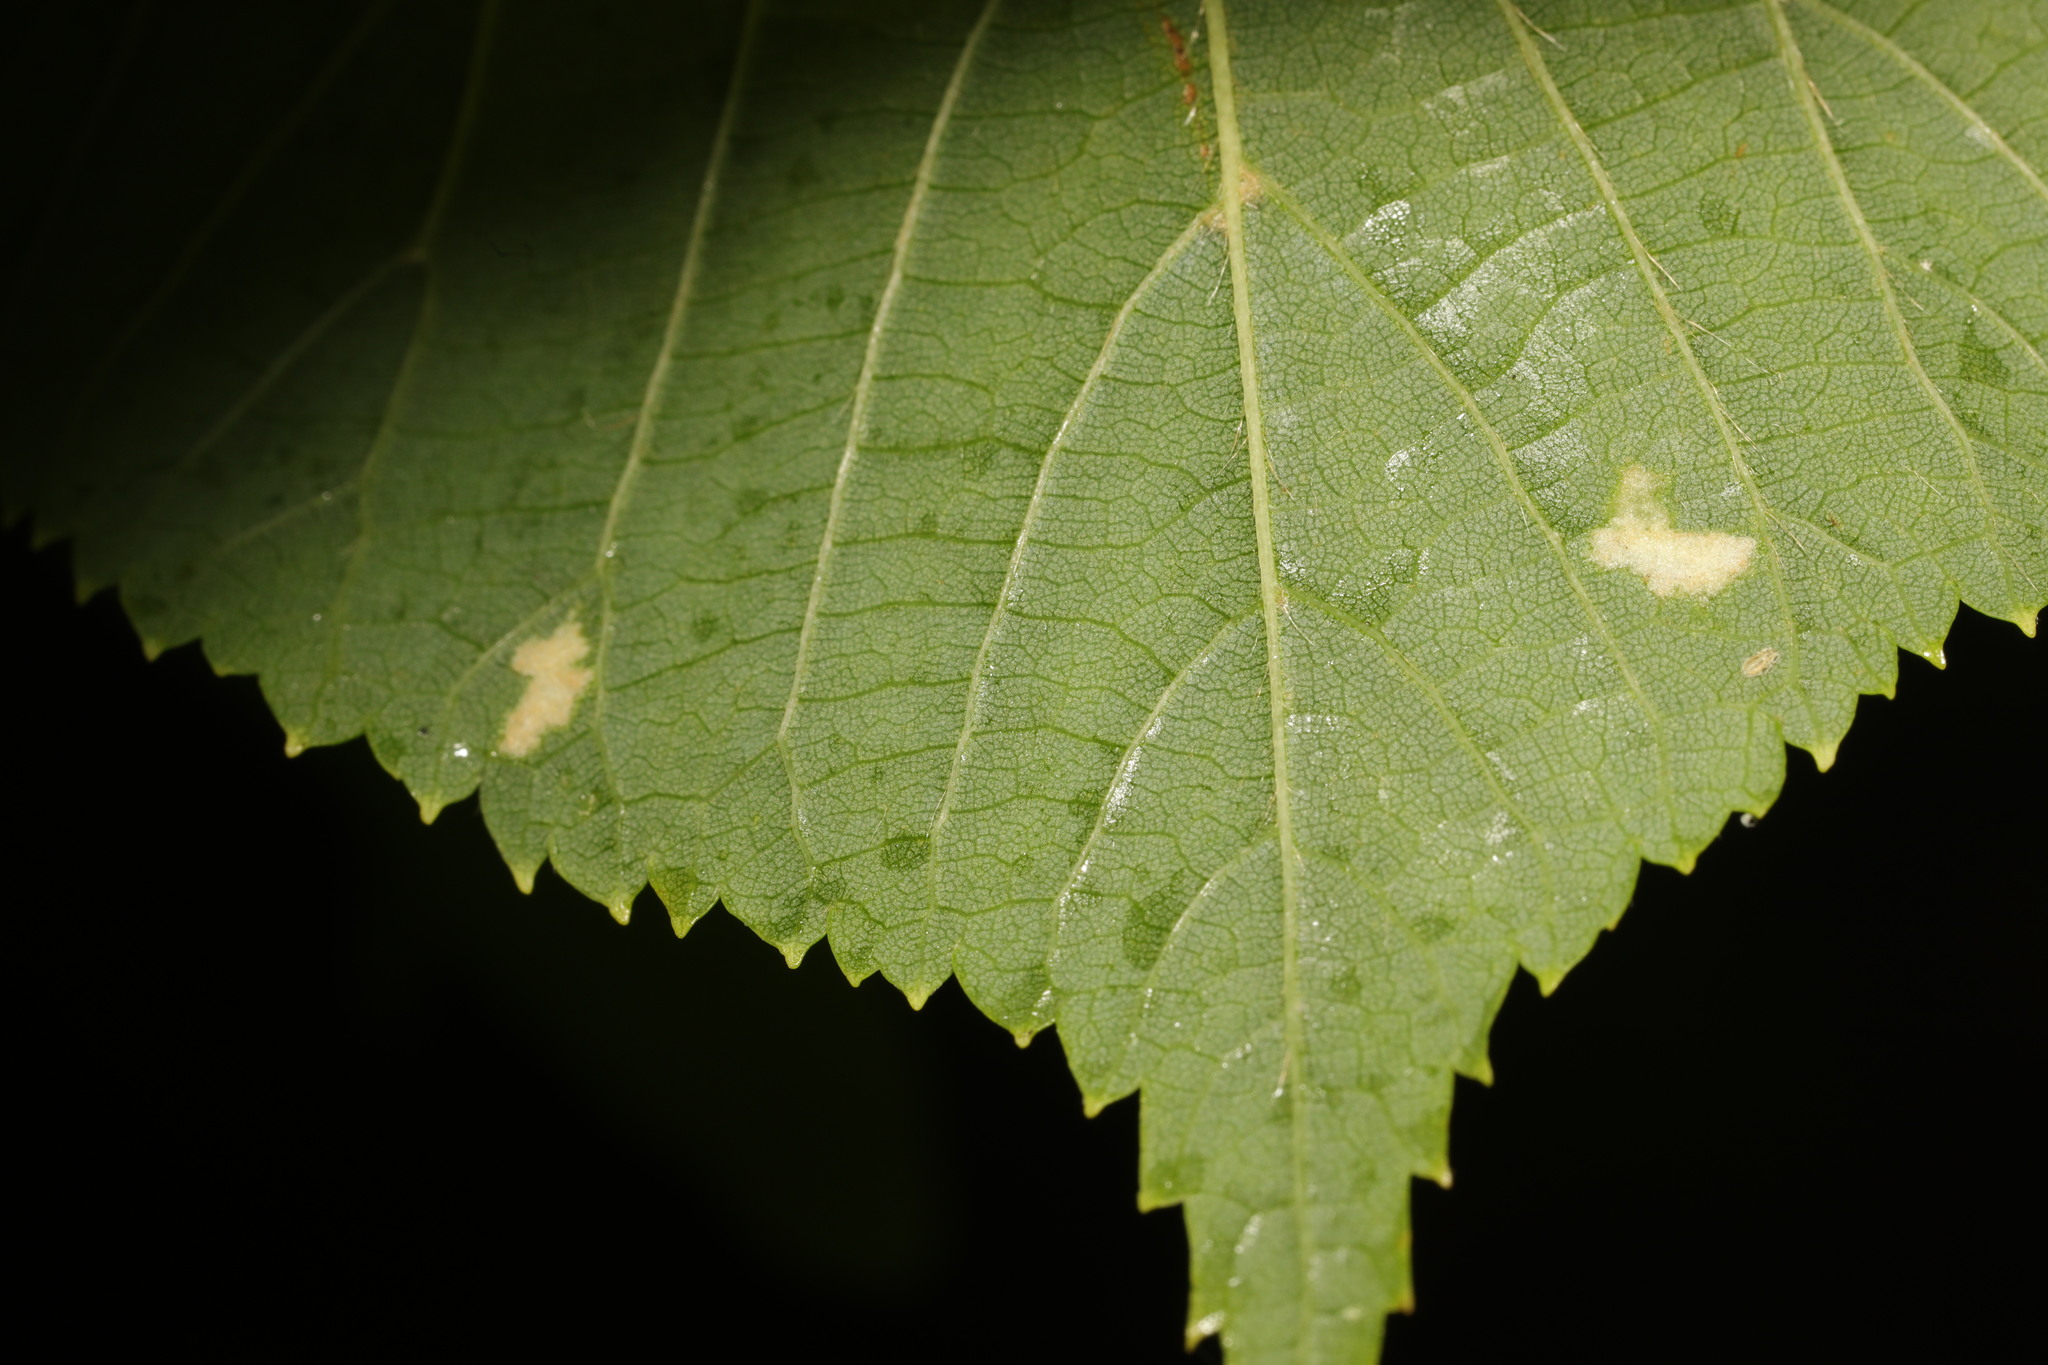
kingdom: Animalia
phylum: Arthropoda
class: Arachnida
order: Trombidiformes
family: Eriophyidae
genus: Eriophyes
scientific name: Eriophyes leiosoma
